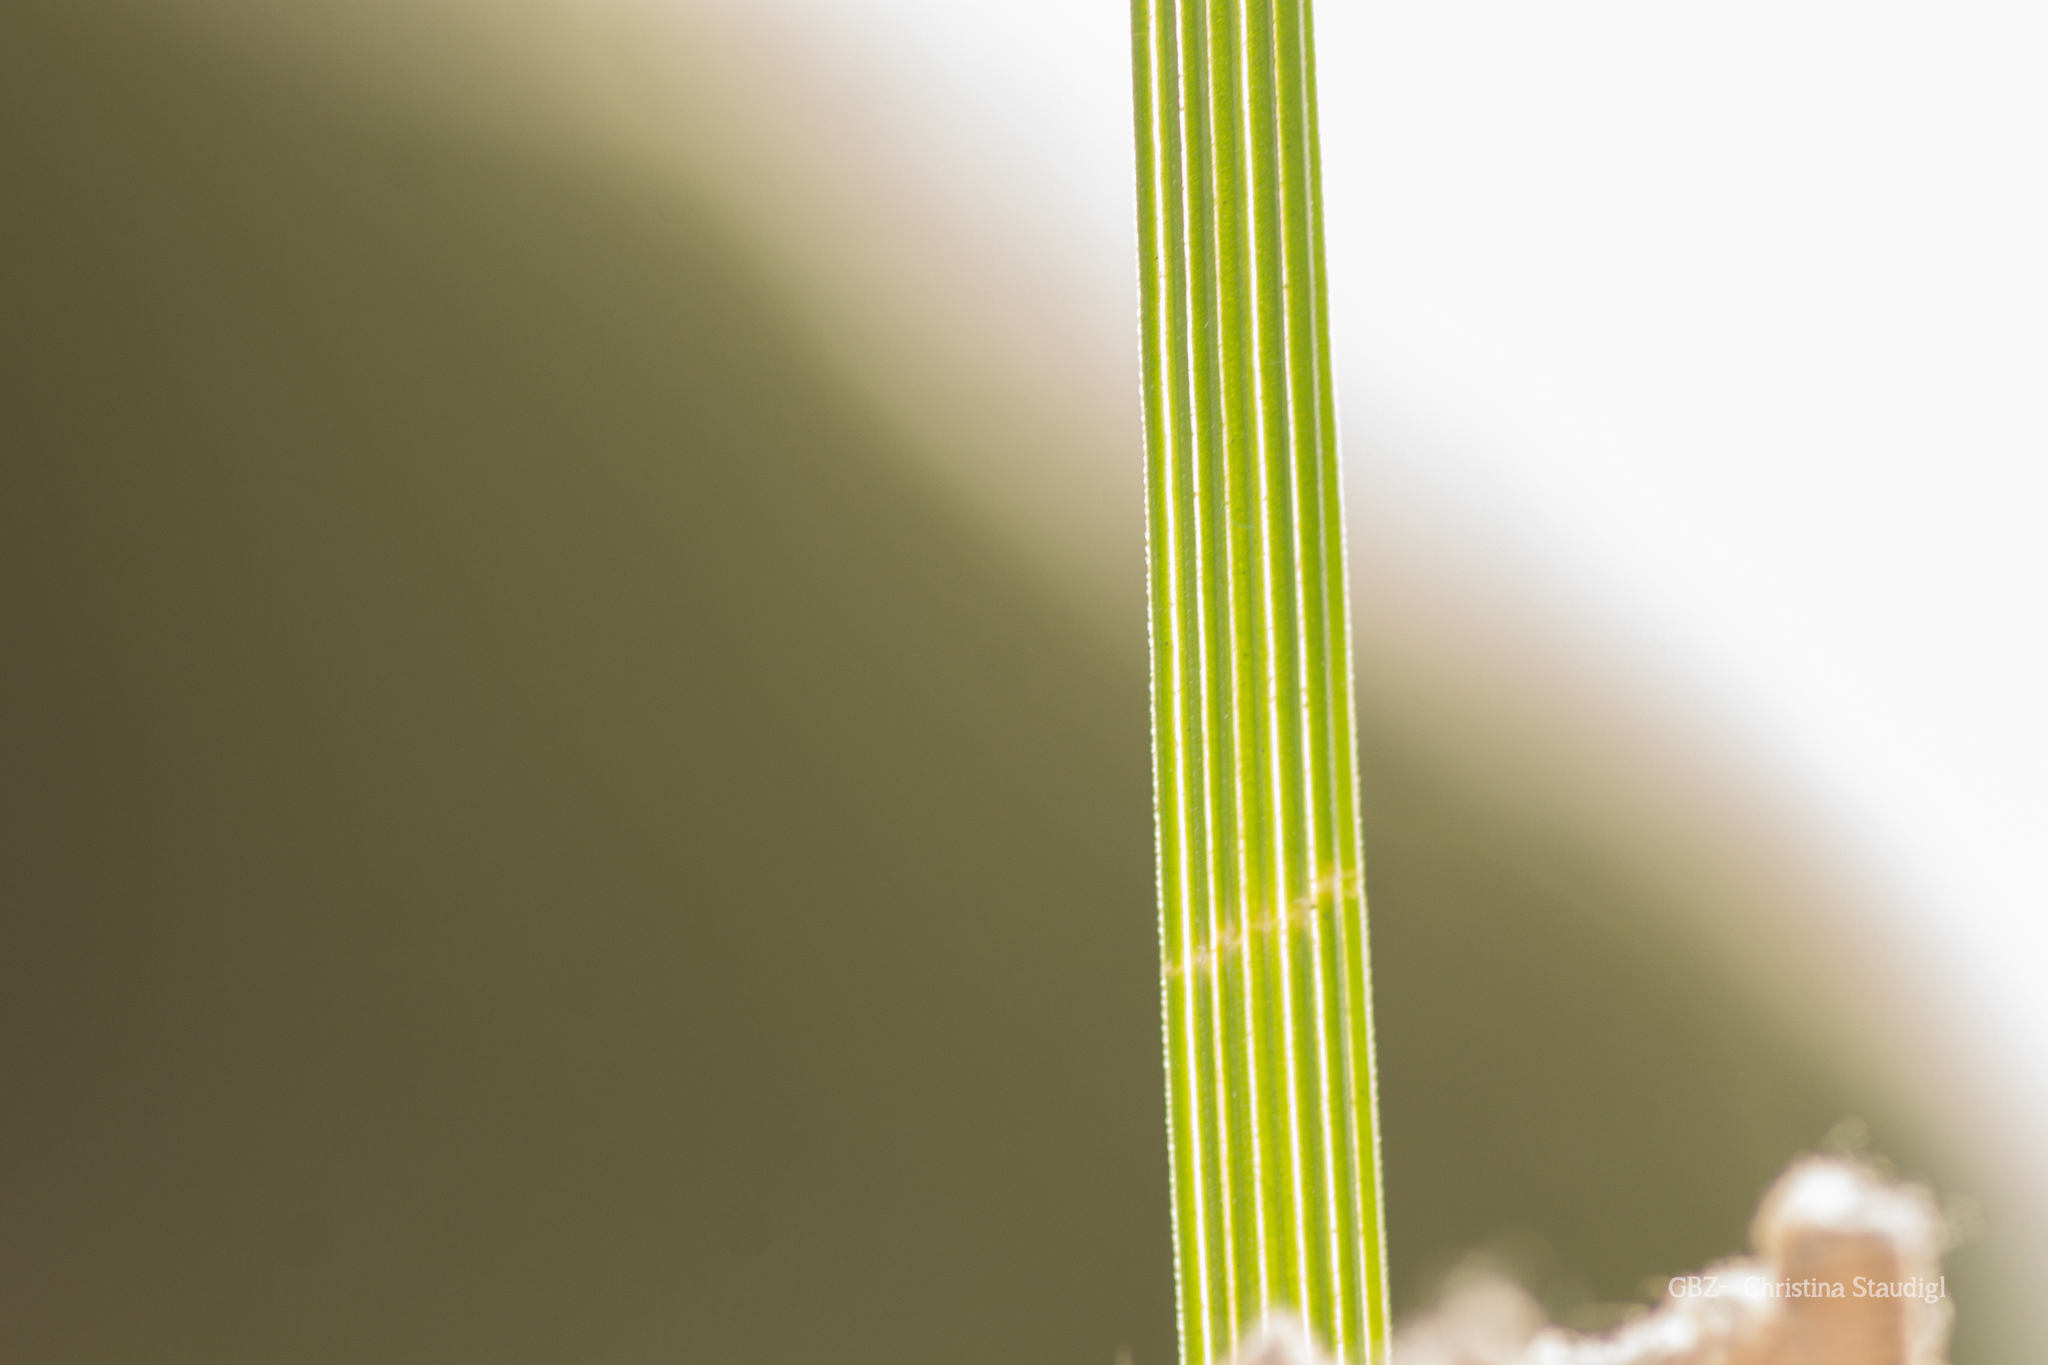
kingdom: Plantae
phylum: Tracheophyta
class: Liliopsida
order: Poales
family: Poaceae
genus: Deschampsia
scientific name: Deschampsia cespitosa
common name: Tufted hair-grass
